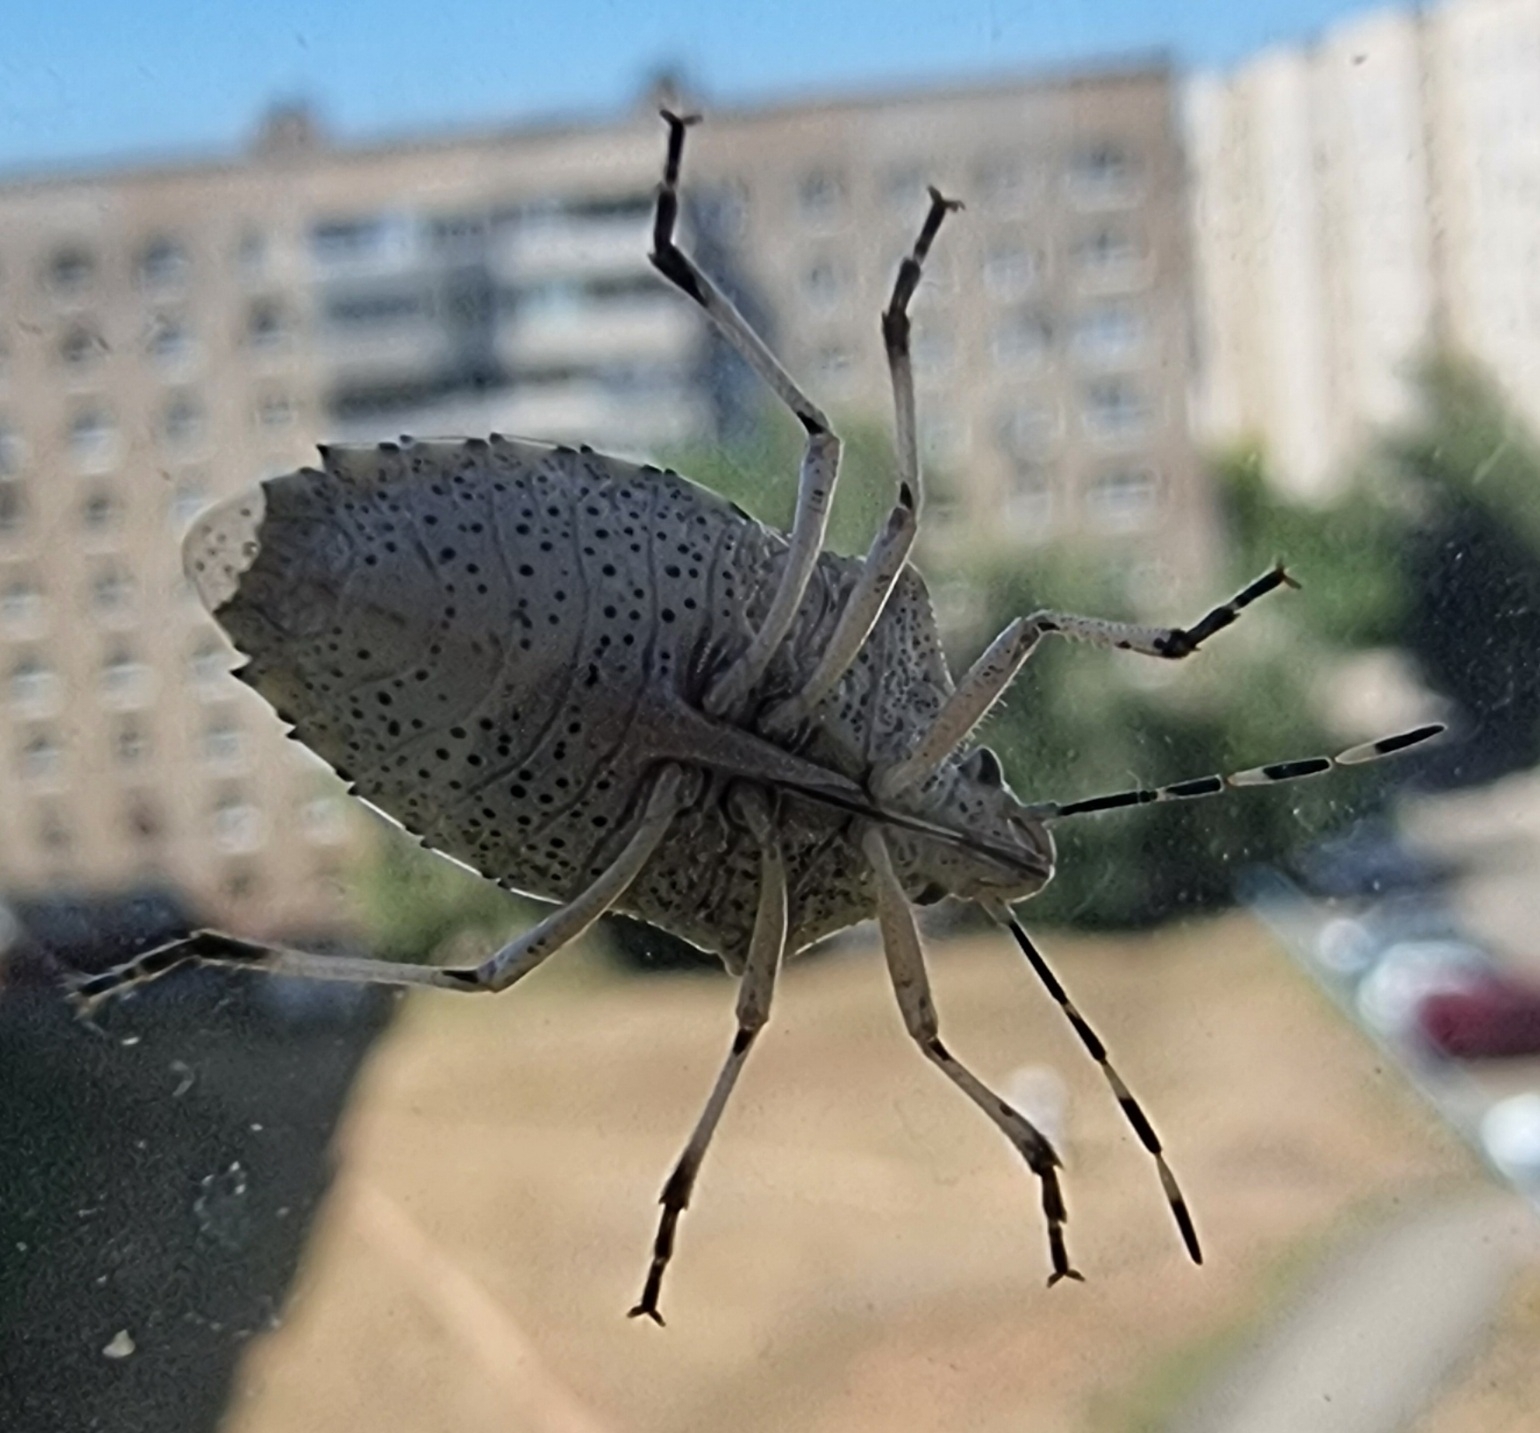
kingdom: Animalia
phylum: Arthropoda
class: Insecta
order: Hemiptera
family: Pentatomidae
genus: Rhaphigaster
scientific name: Rhaphigaster nebulosa
